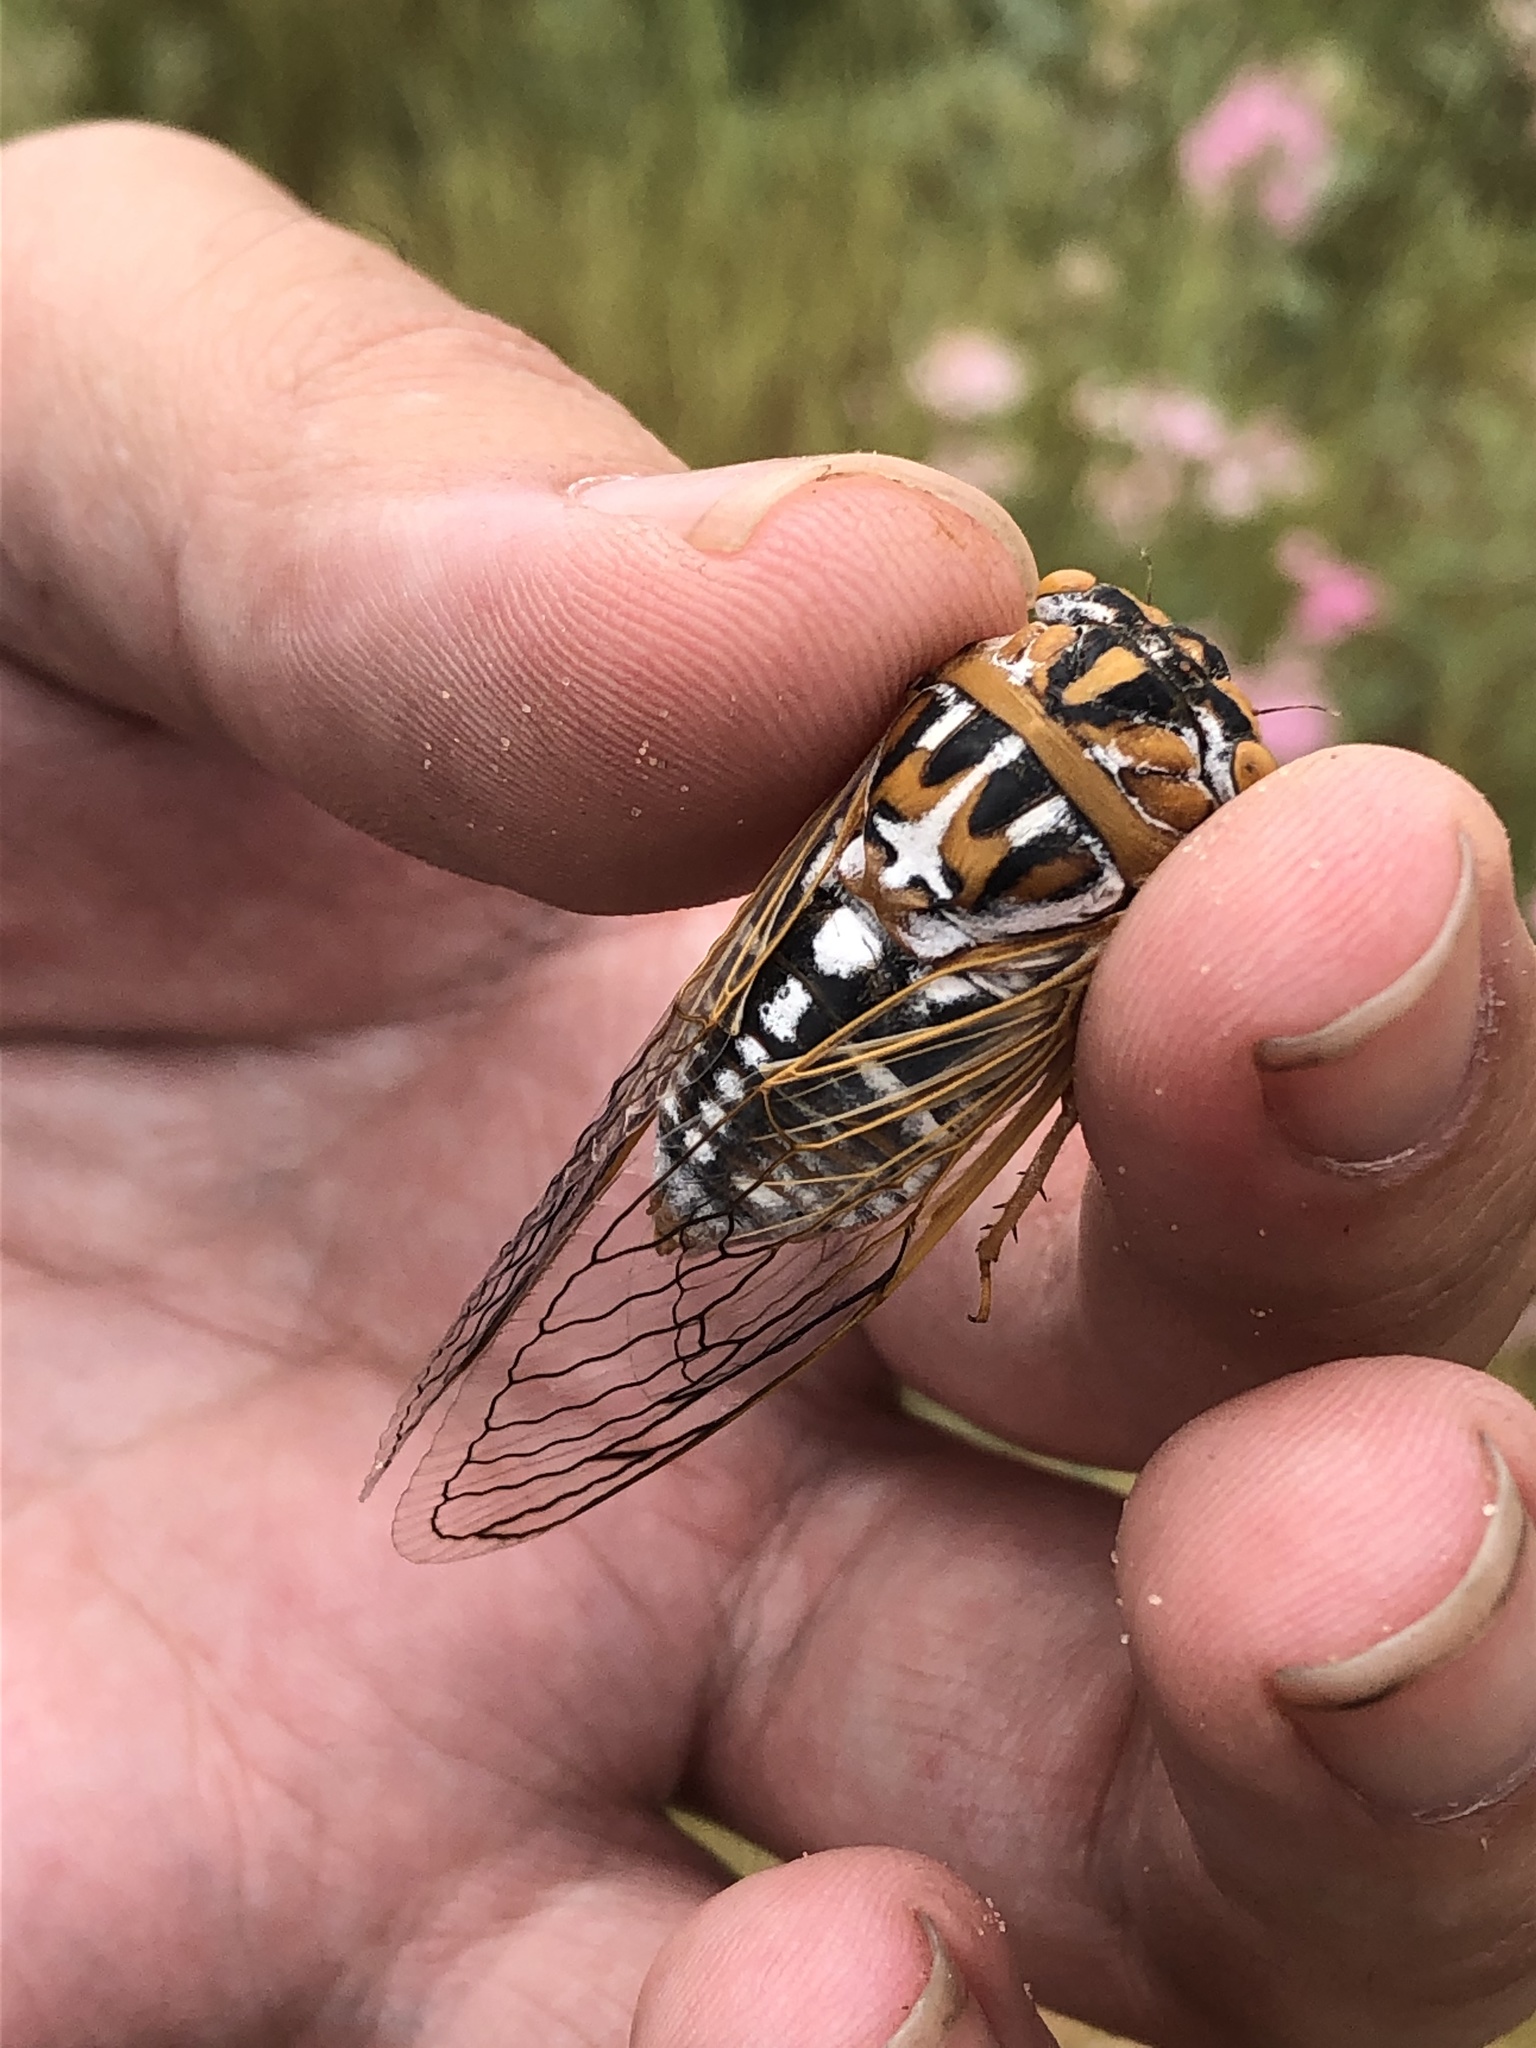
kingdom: Animalia
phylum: Arthropoda
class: Insecta
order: Hemiptera
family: Cicadidae
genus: Megatibicen
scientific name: Megatibicen harenosus
